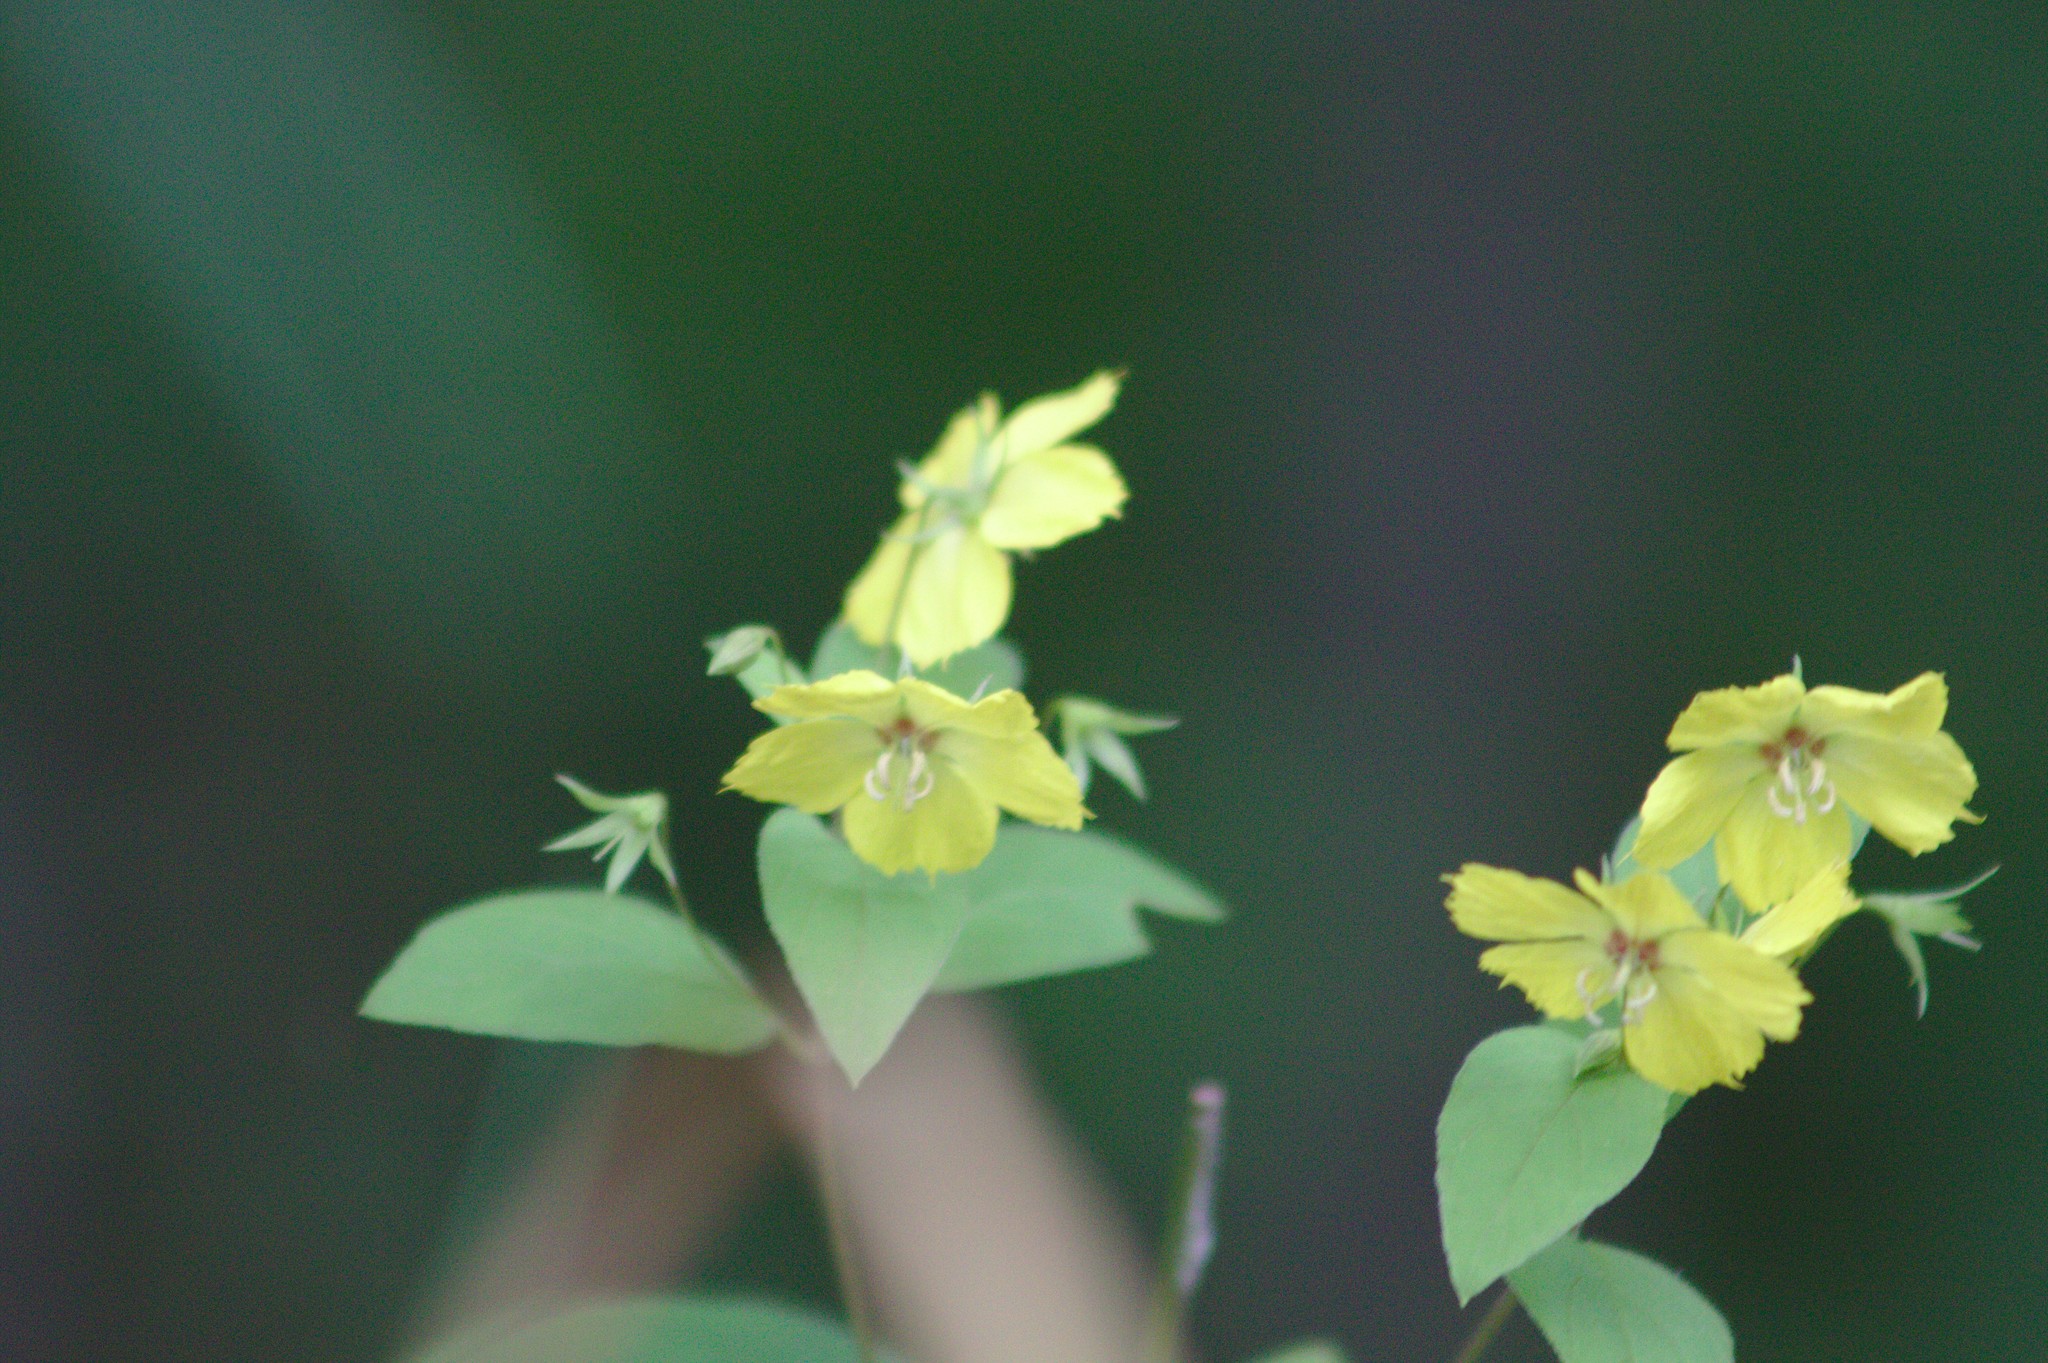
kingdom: Plantae
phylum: Tracheophyta
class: Magnoliopsida
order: Ericales
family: Primulaceae
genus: Lysimachia
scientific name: Lysimachia ciliata
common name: Fringed loosestrife
